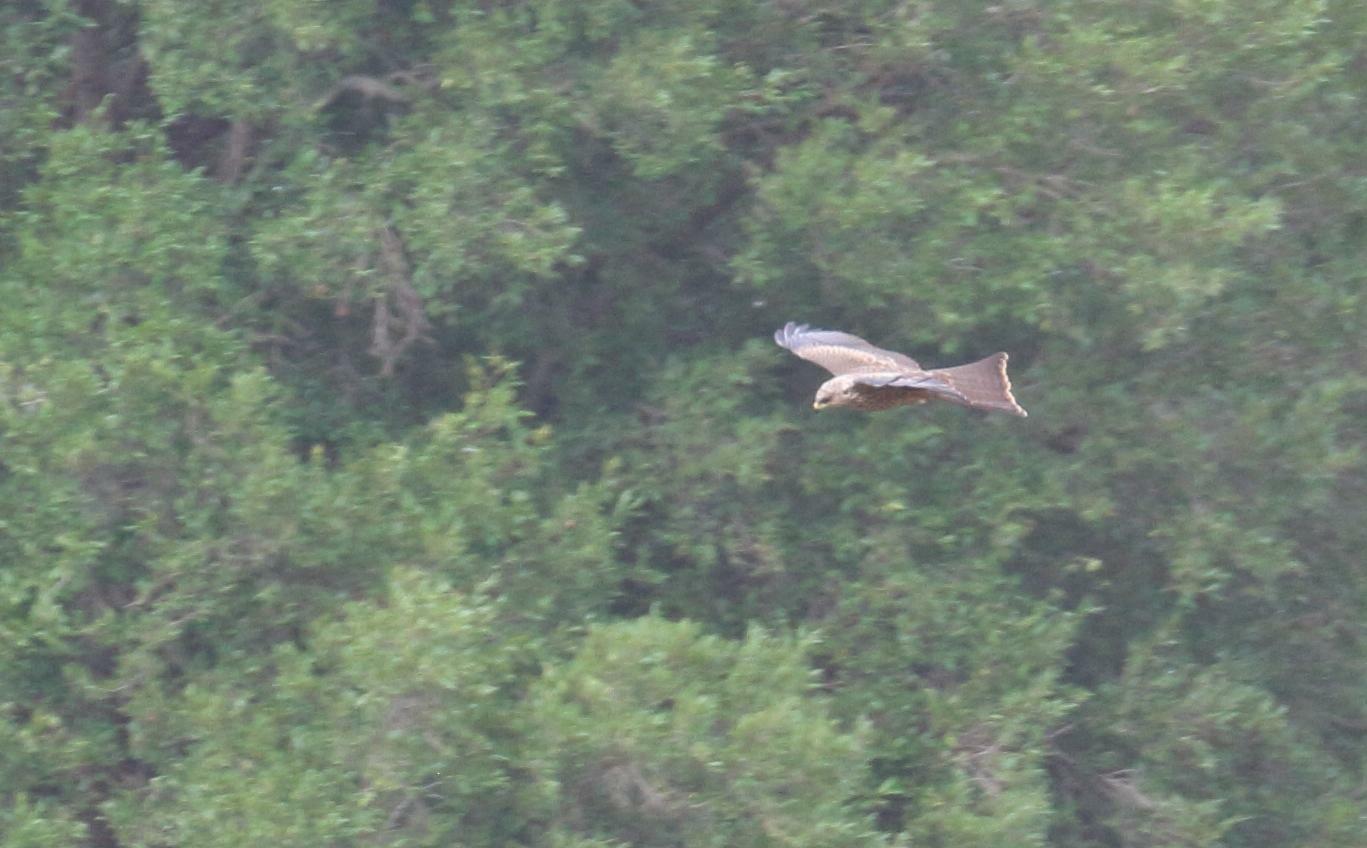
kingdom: Animalia
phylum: Chordata
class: Aves
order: Accipitriformes
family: Accipitridae
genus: Milvus
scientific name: Milvus migrans
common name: Black kite
